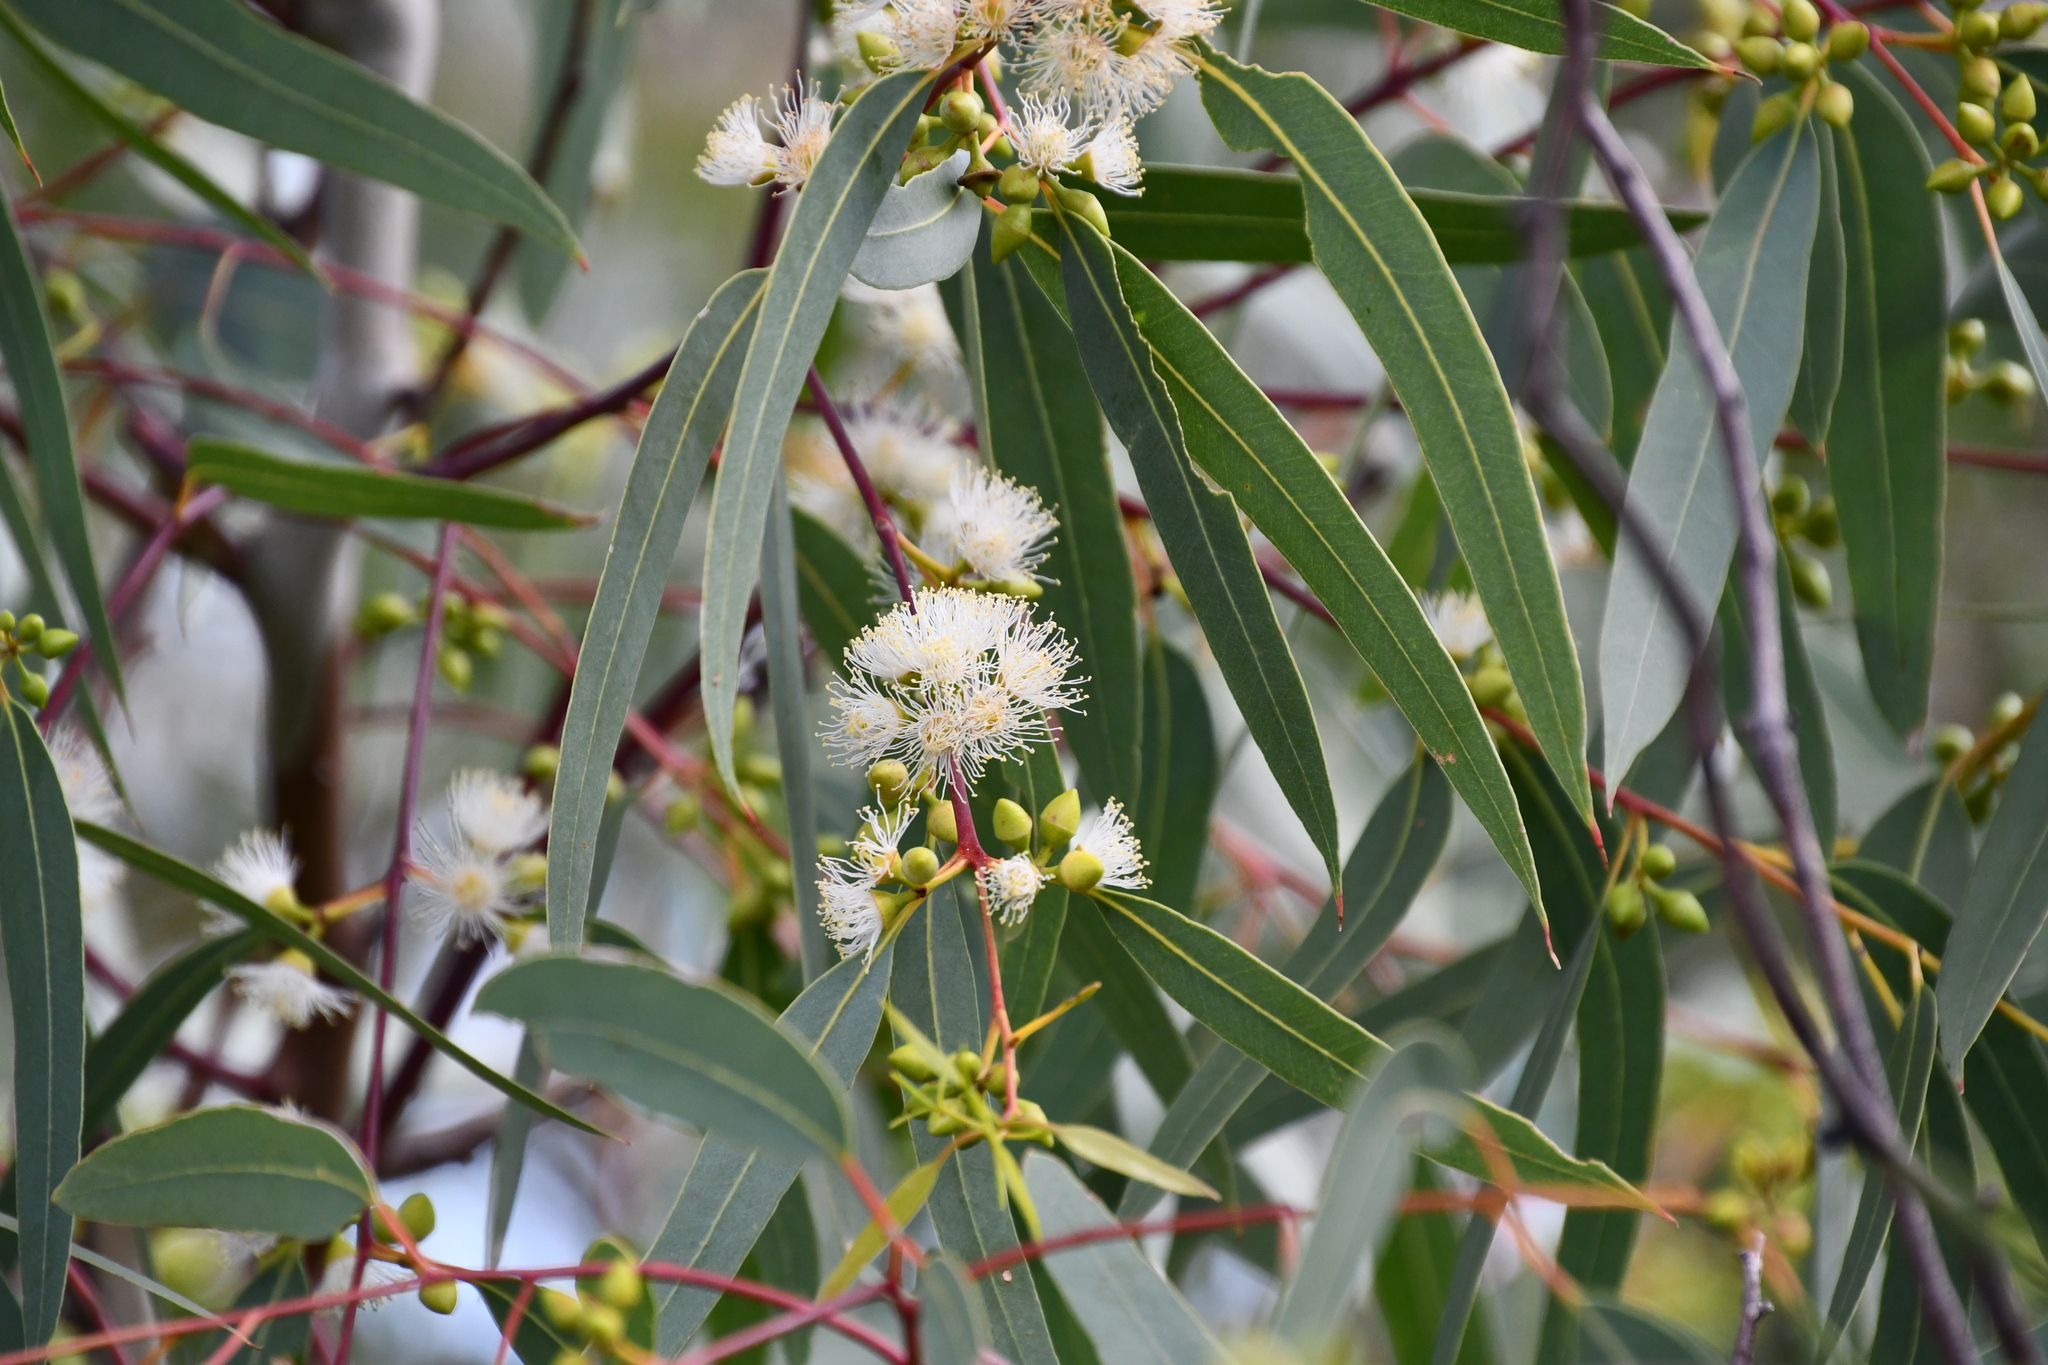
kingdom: Plantae
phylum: Tracheophyta
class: Magnoliopsida
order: Myrtales
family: Myrtaceae
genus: Eucalyptus
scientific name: Eucalyptus camaldulensis
